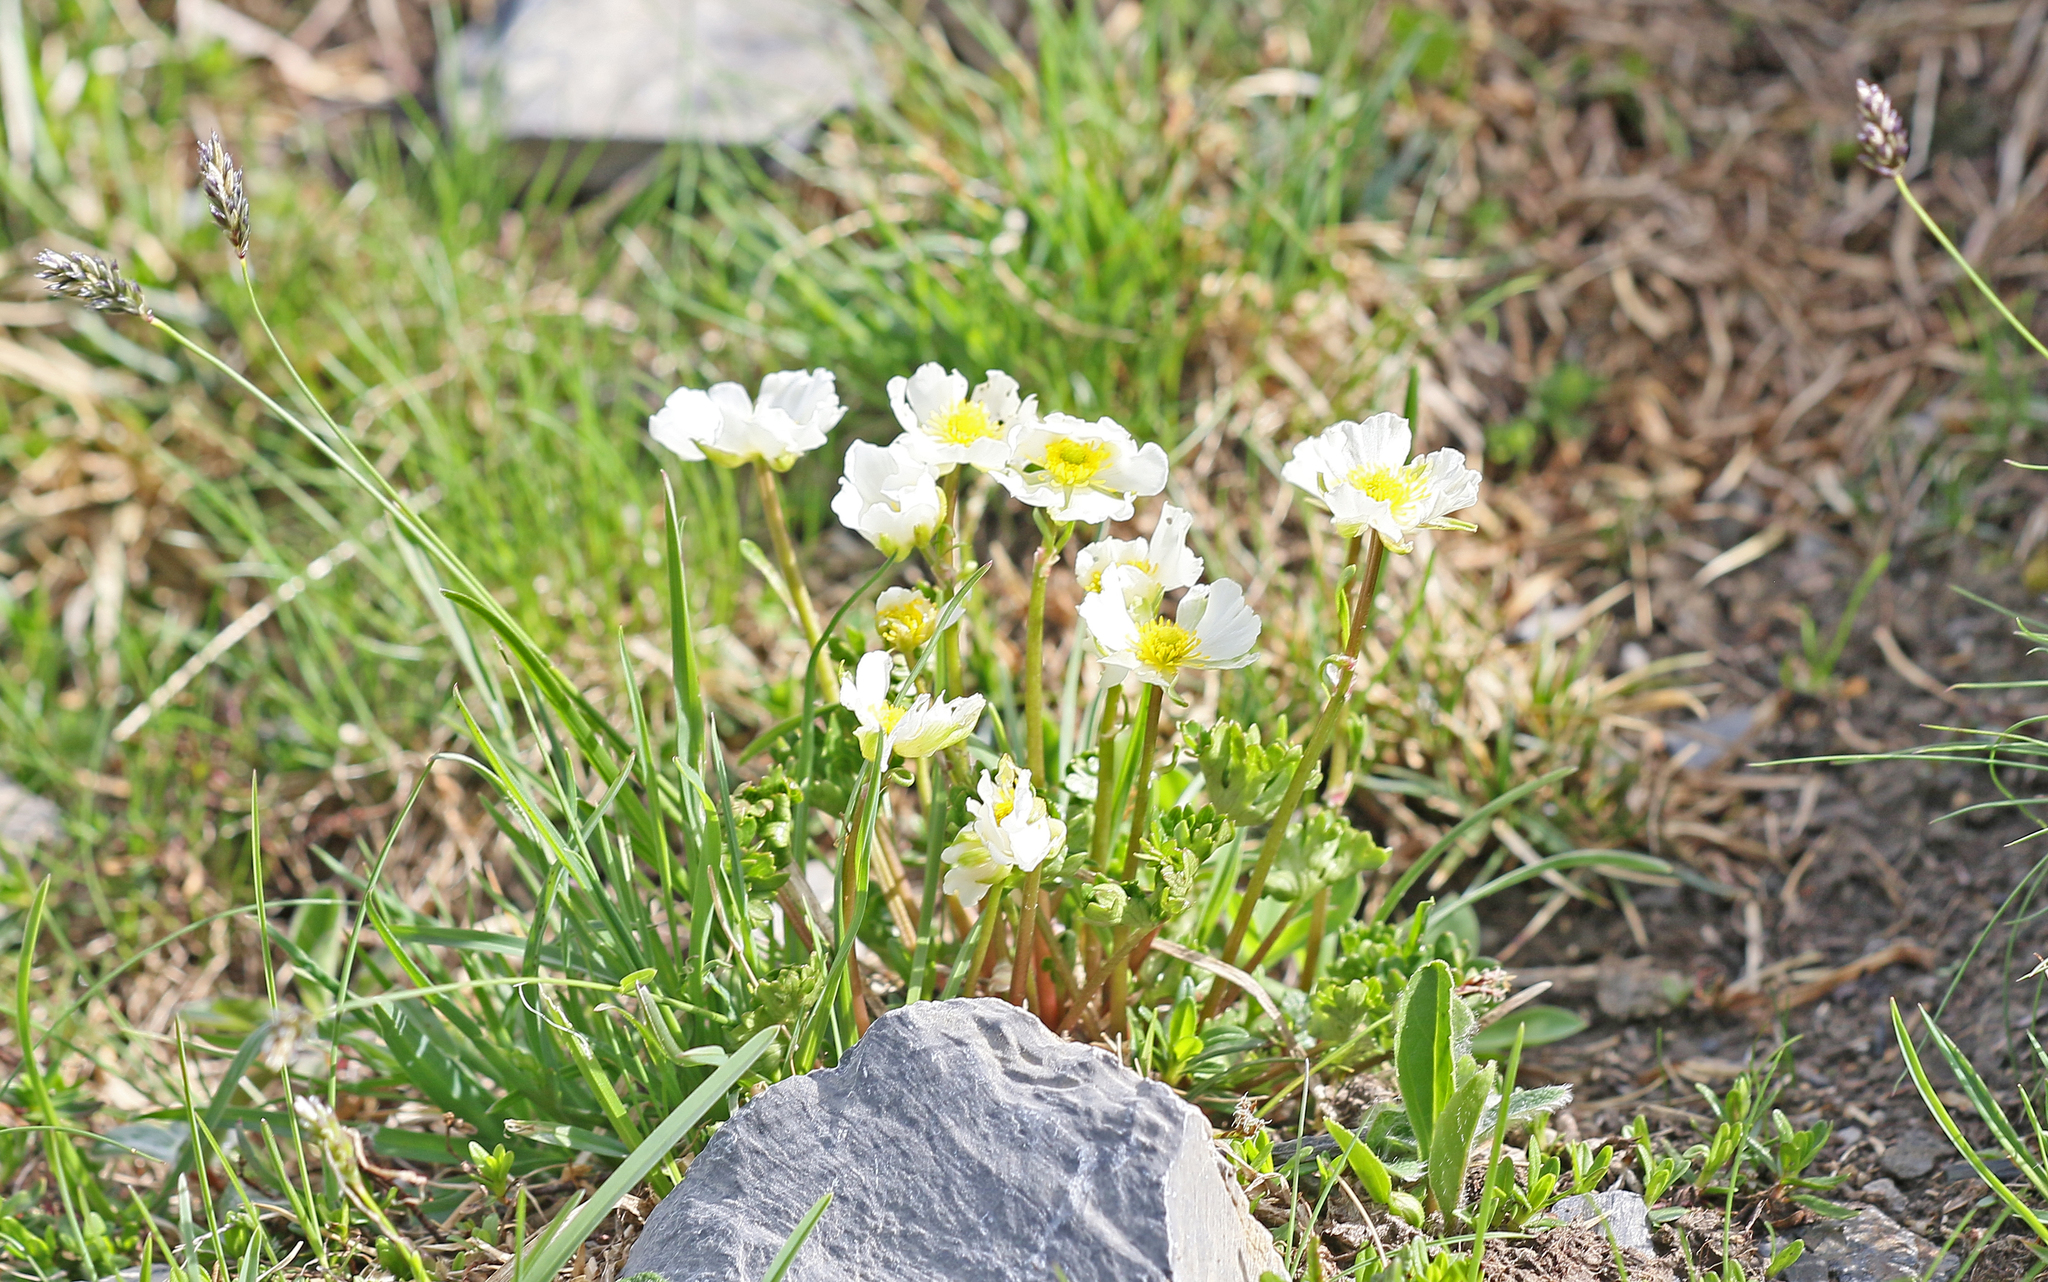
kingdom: Plantae
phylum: Tracheophyta
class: Magnoliopsida
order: Ranunculales
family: Ranunculaceae
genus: Ranunculus
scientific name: Ranunculus alpestris
